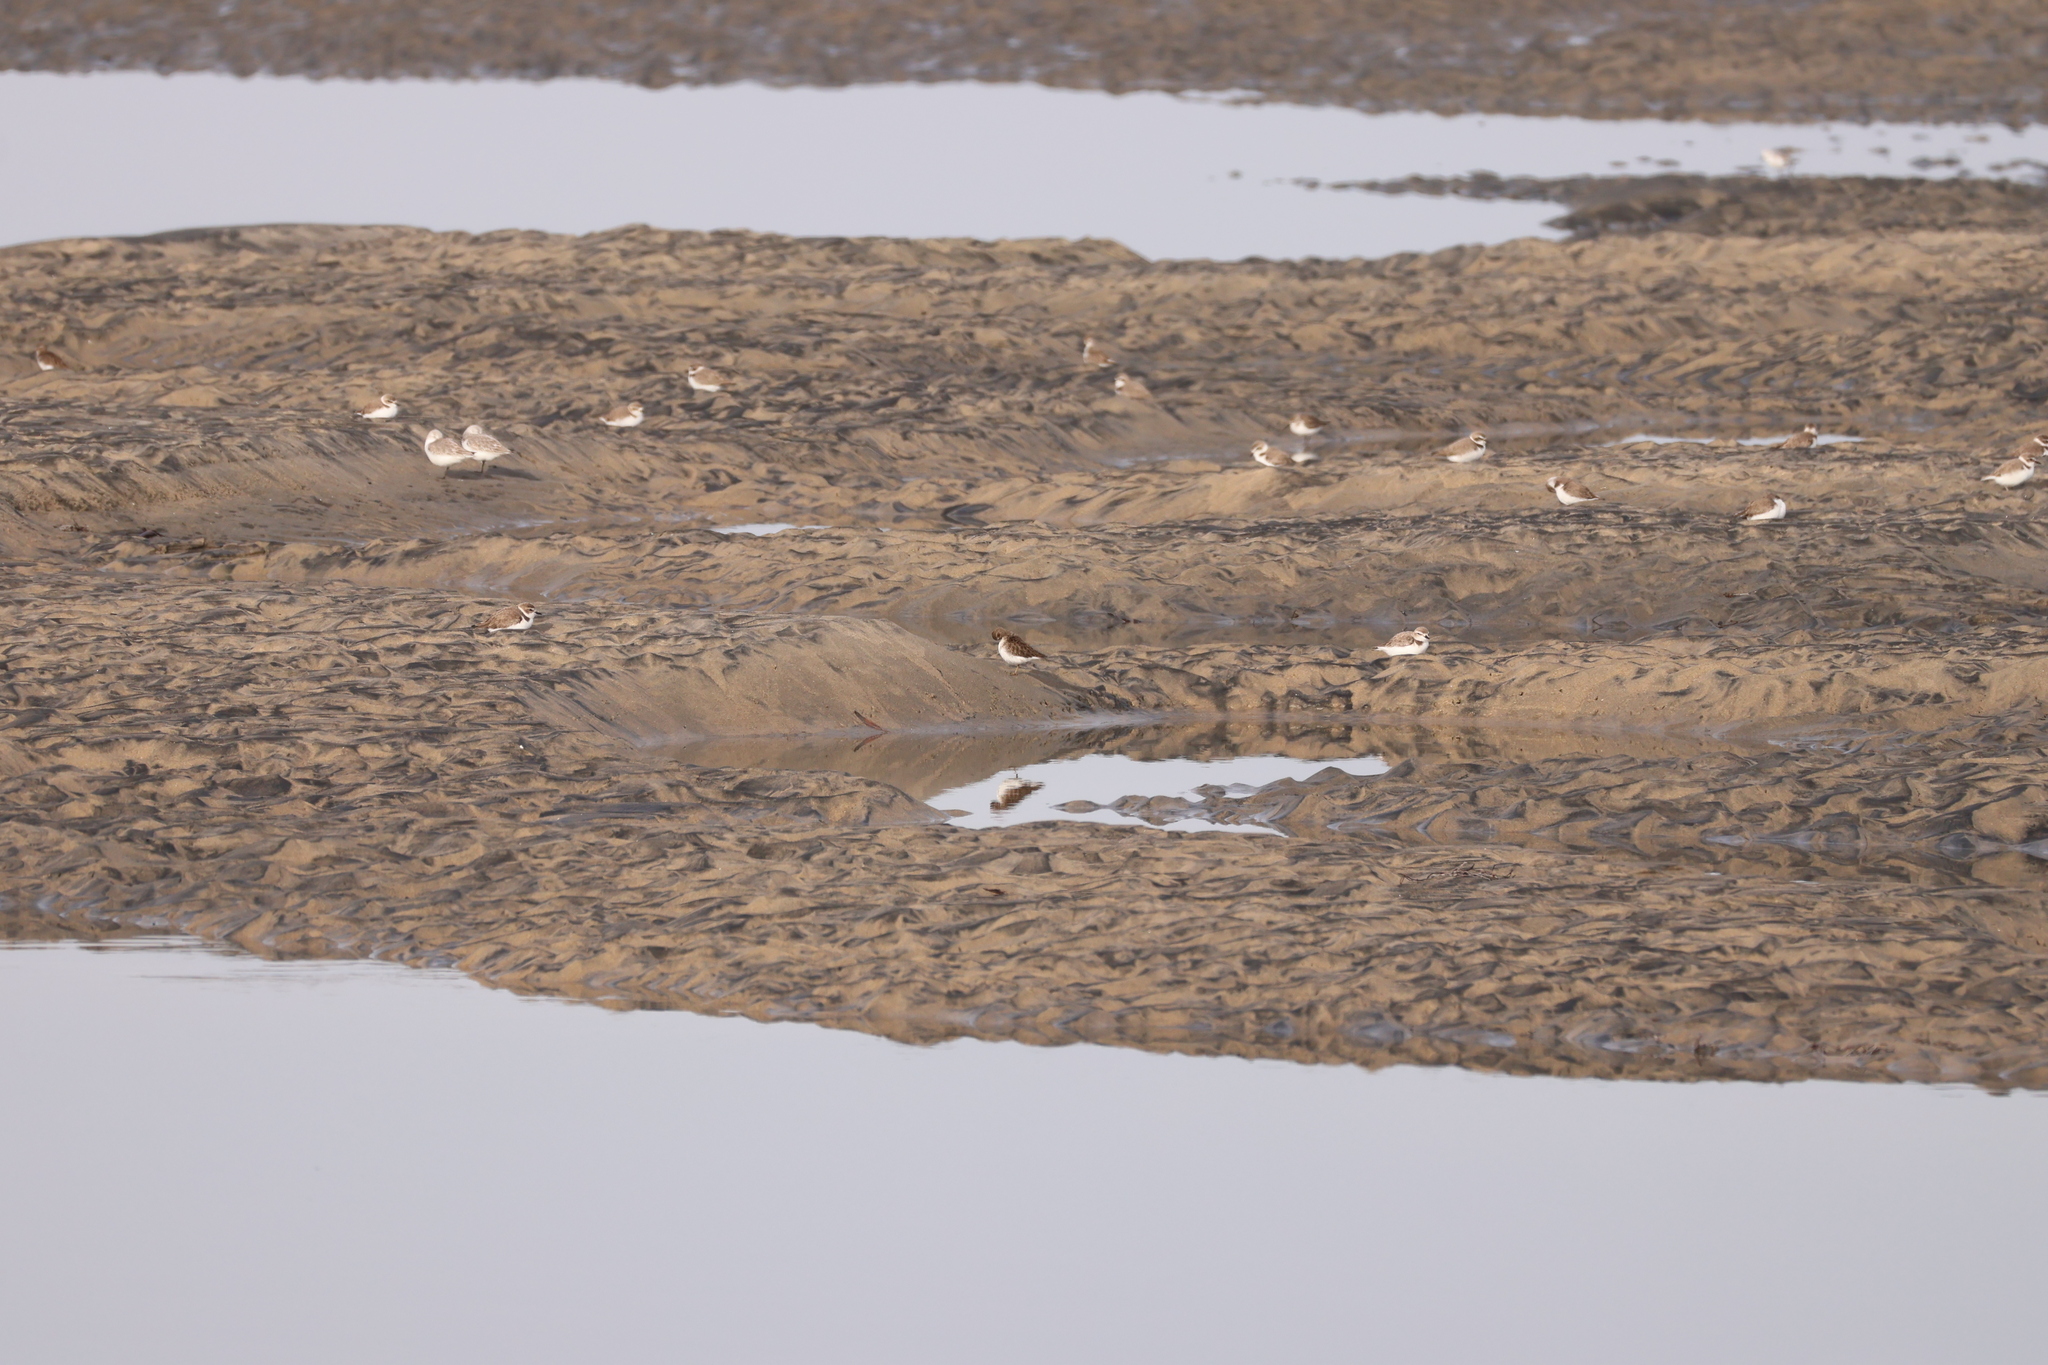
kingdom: Animalia
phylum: Chordata
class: Aves
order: Charadriiformes
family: Charadriidae
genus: Anarhynchus
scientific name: Anarhynchus
